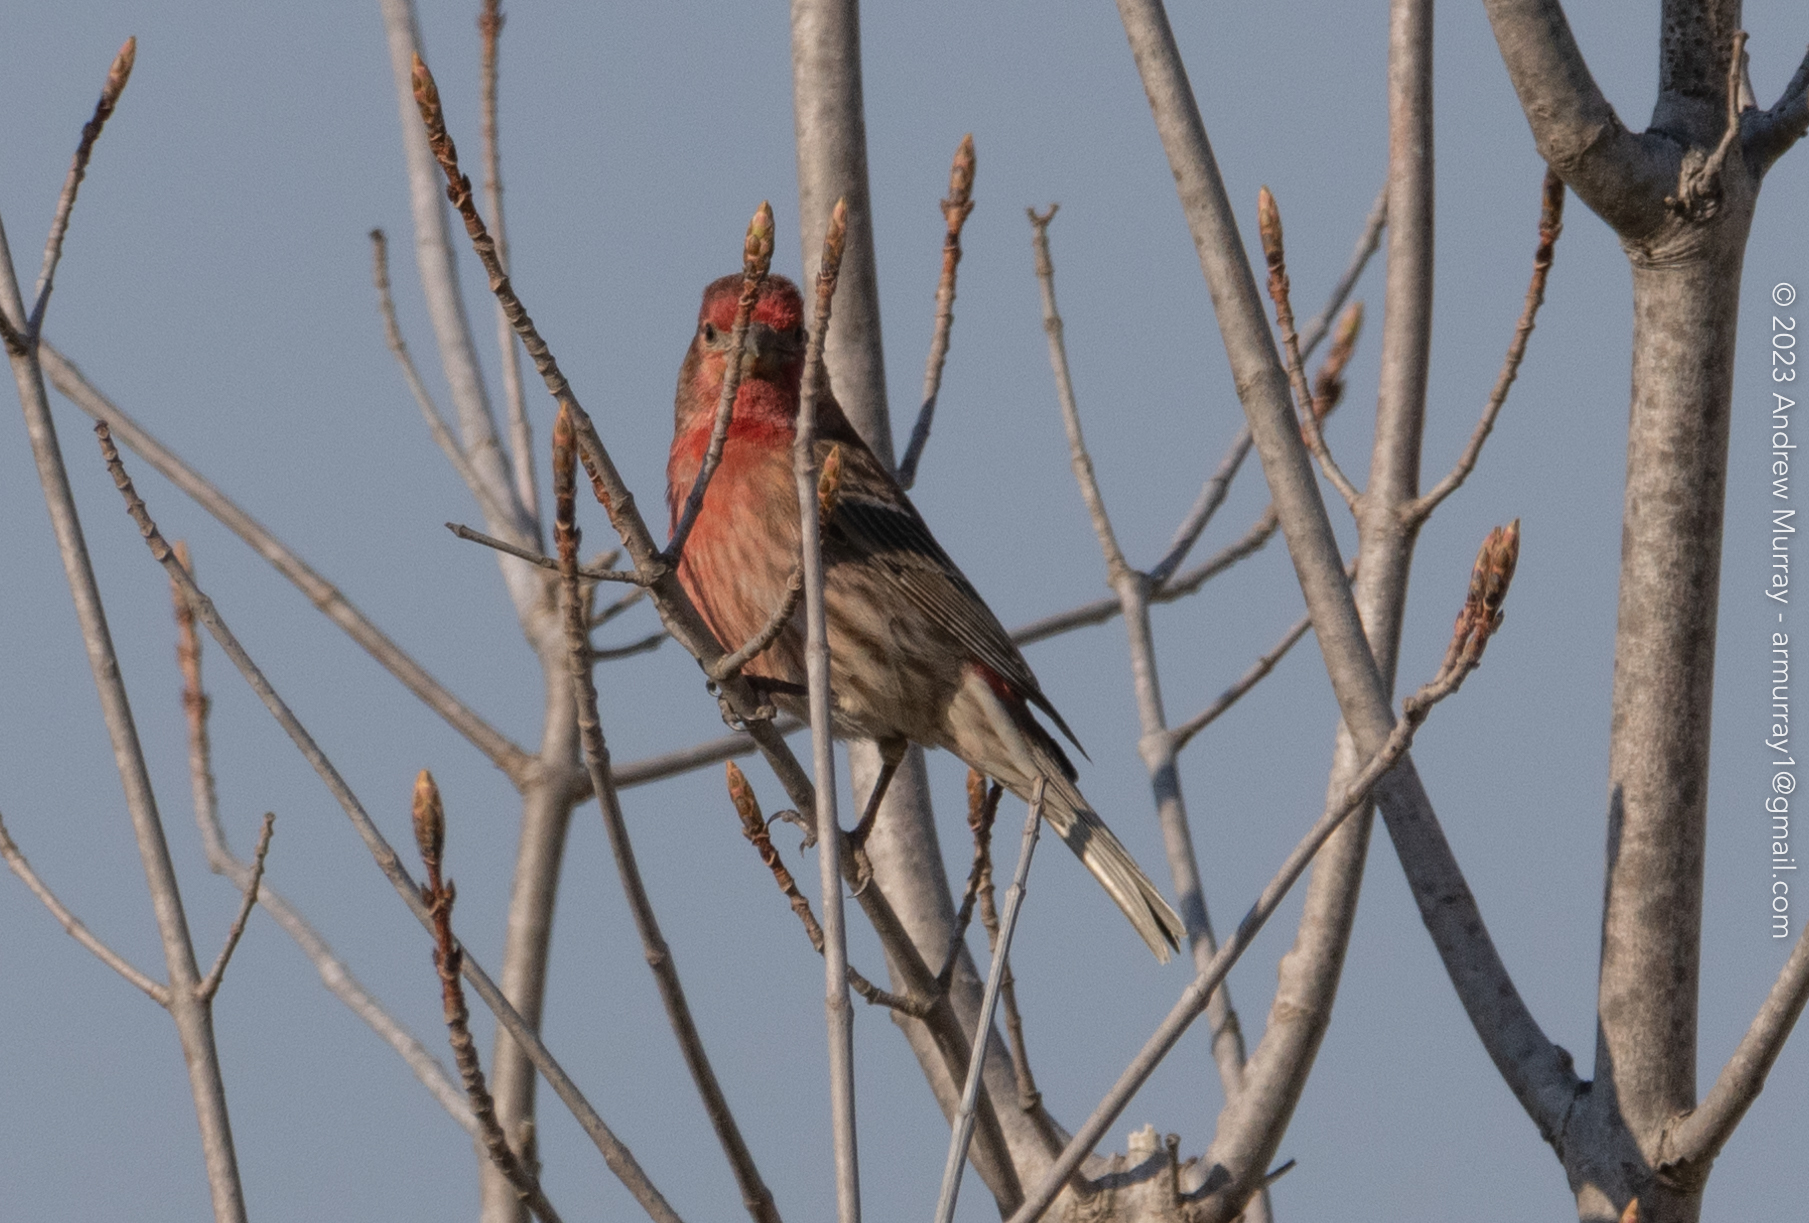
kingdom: Animalia
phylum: Chordata
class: Aves
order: Passeriformes
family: Fringillidae
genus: Haemorhous
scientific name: Haemorhous mexicanus
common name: House finch
